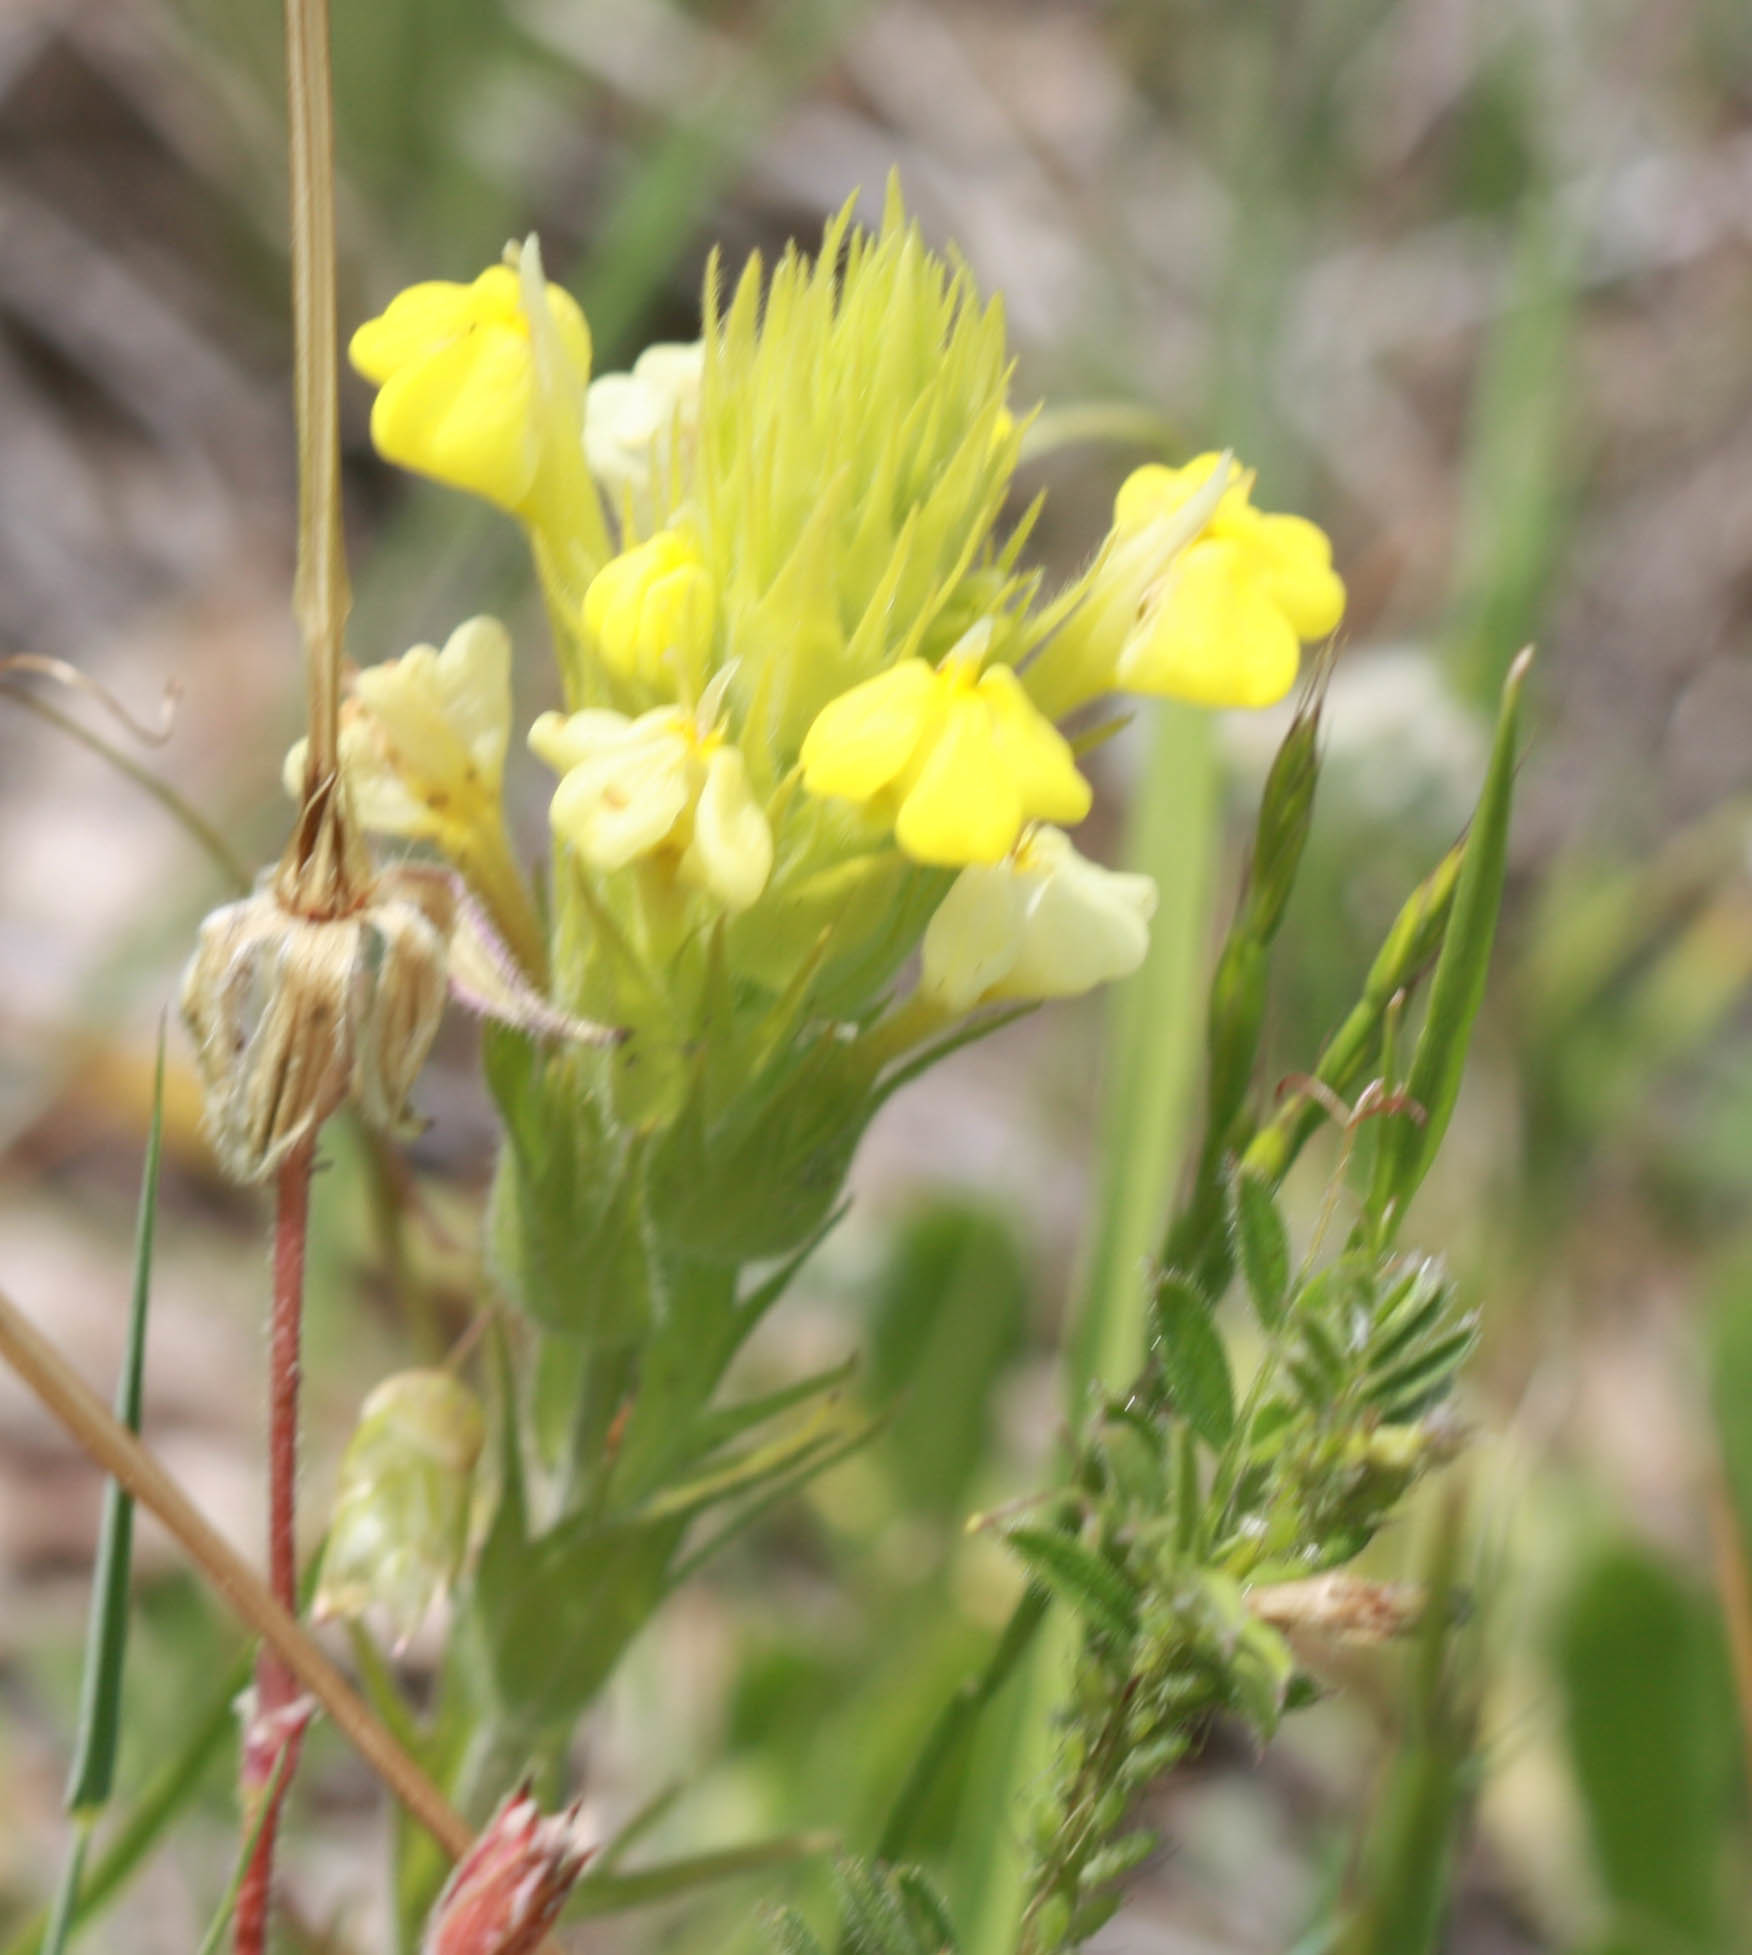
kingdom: Plantae
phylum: Tracheophyta
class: Magnoliopsida
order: Lamiales
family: Orobanchaceae
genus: Castilleja
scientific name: Castilleja rubicundula
